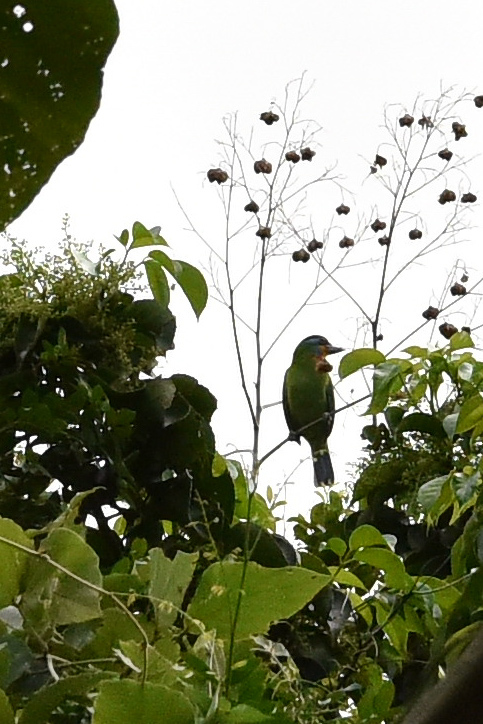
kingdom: Animalia
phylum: Chordata
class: Aves
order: Piciformes
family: Megalaimidae
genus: Psilopogon
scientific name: Psilopogon nuchalis
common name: Taiwan barbet
